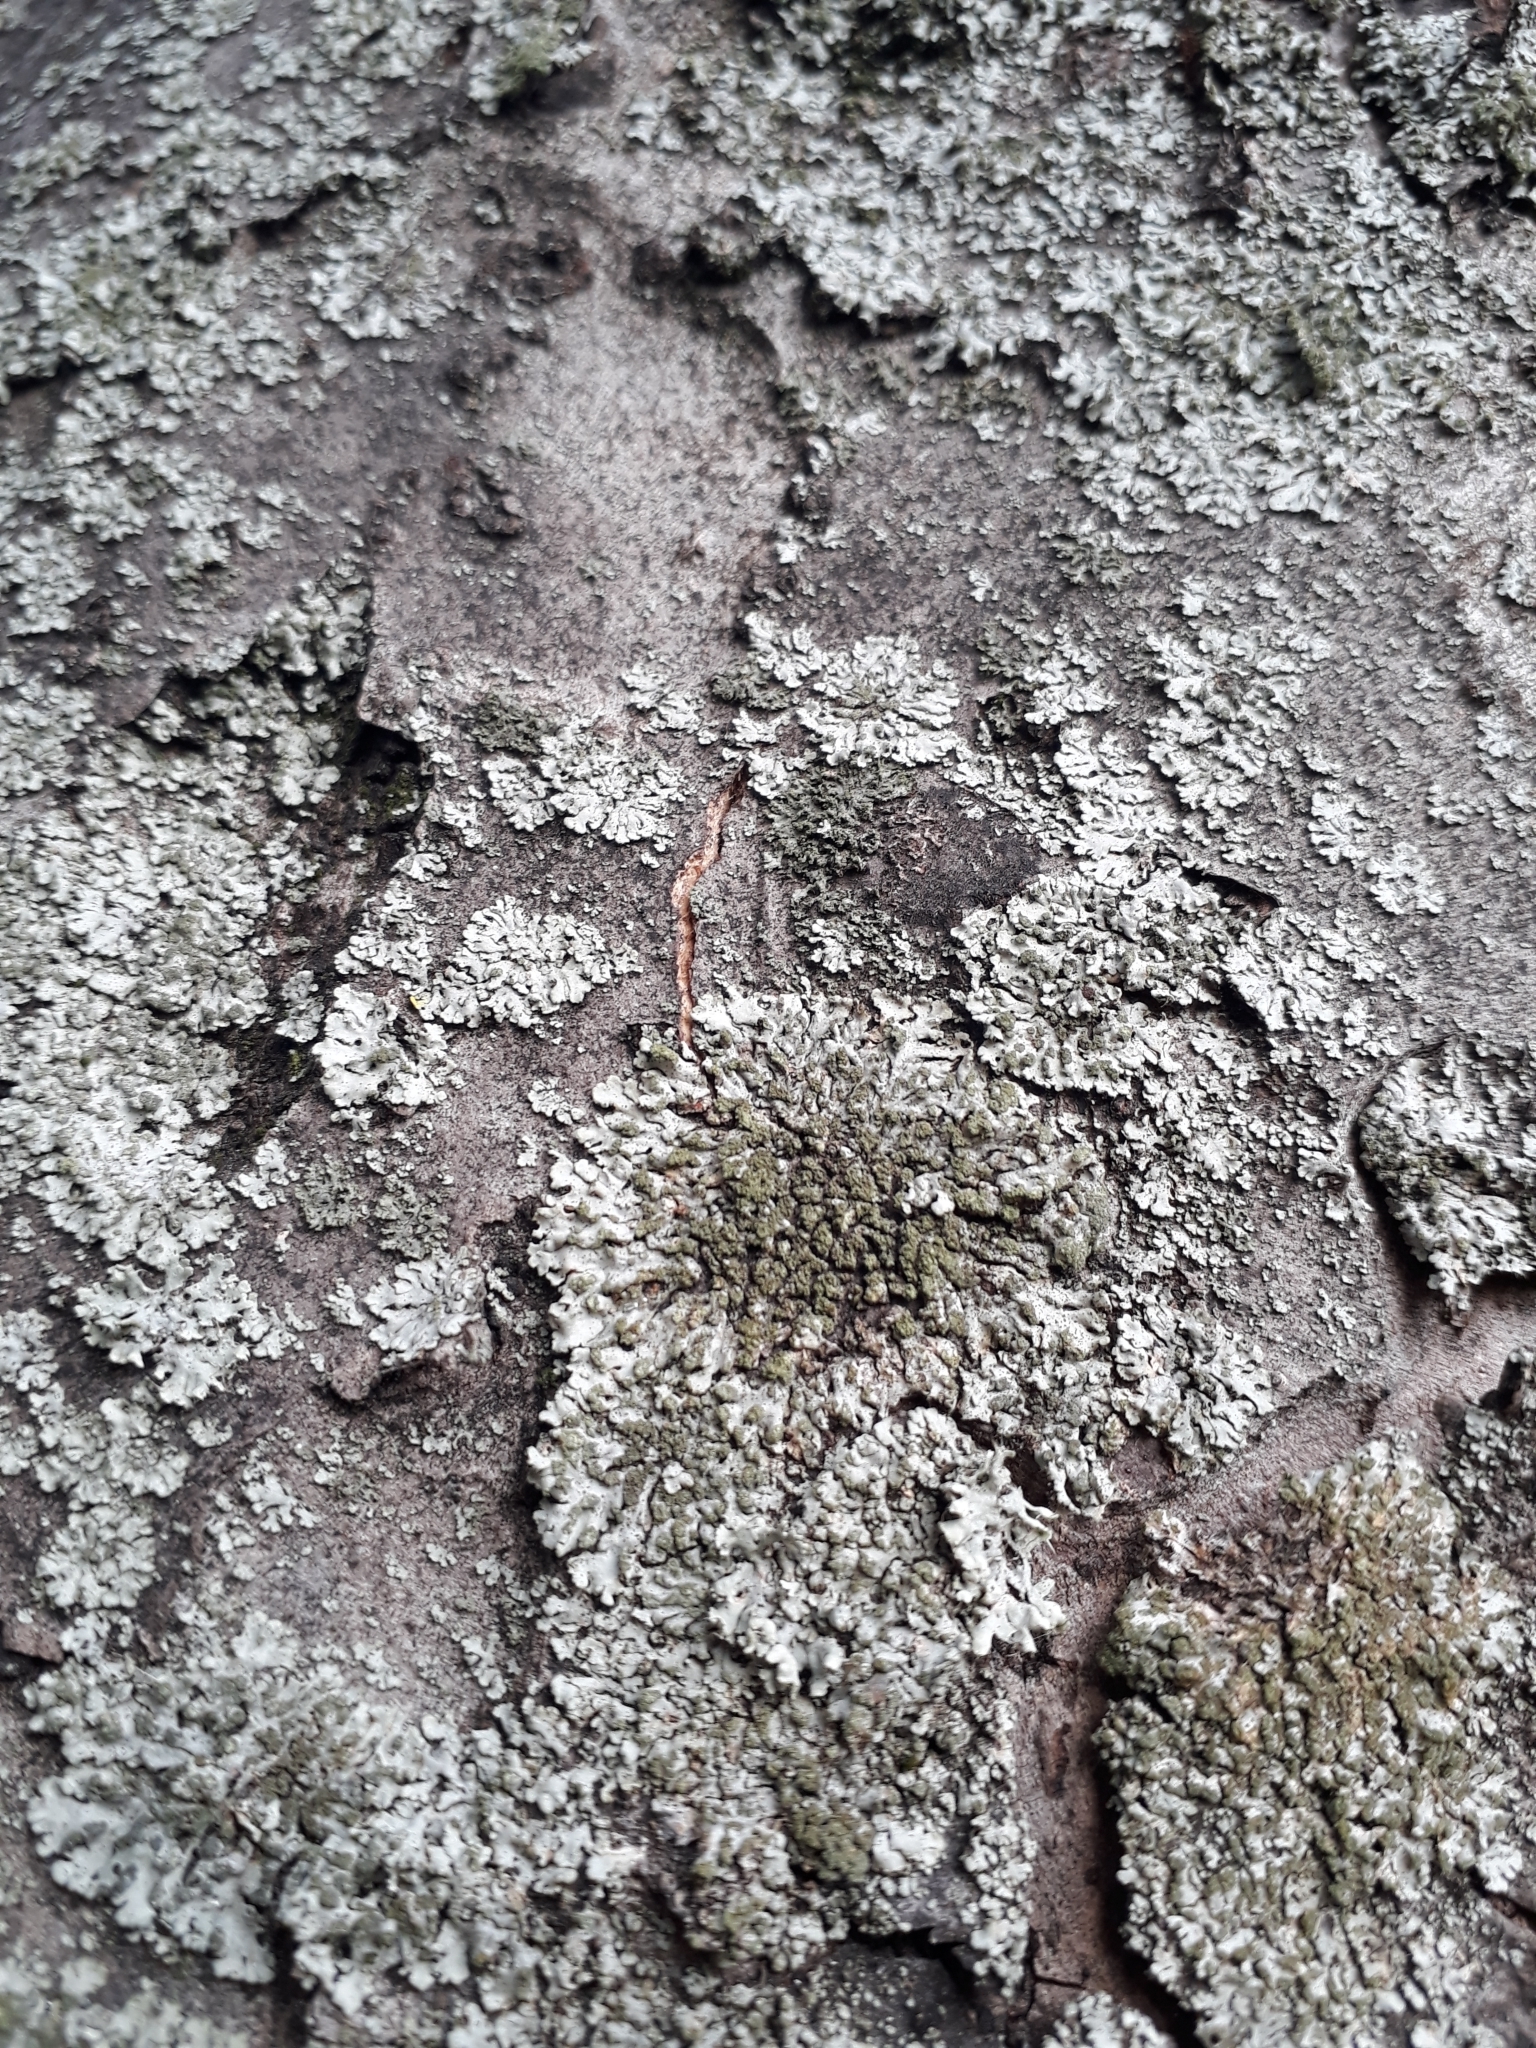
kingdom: Fungi
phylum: Ascomycota
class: Lecanoromycetes
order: Caliciales
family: Physciaceae
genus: Phaeophyscia
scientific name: Phaeophyscia orbicularis
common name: Mealy shadow lichen
